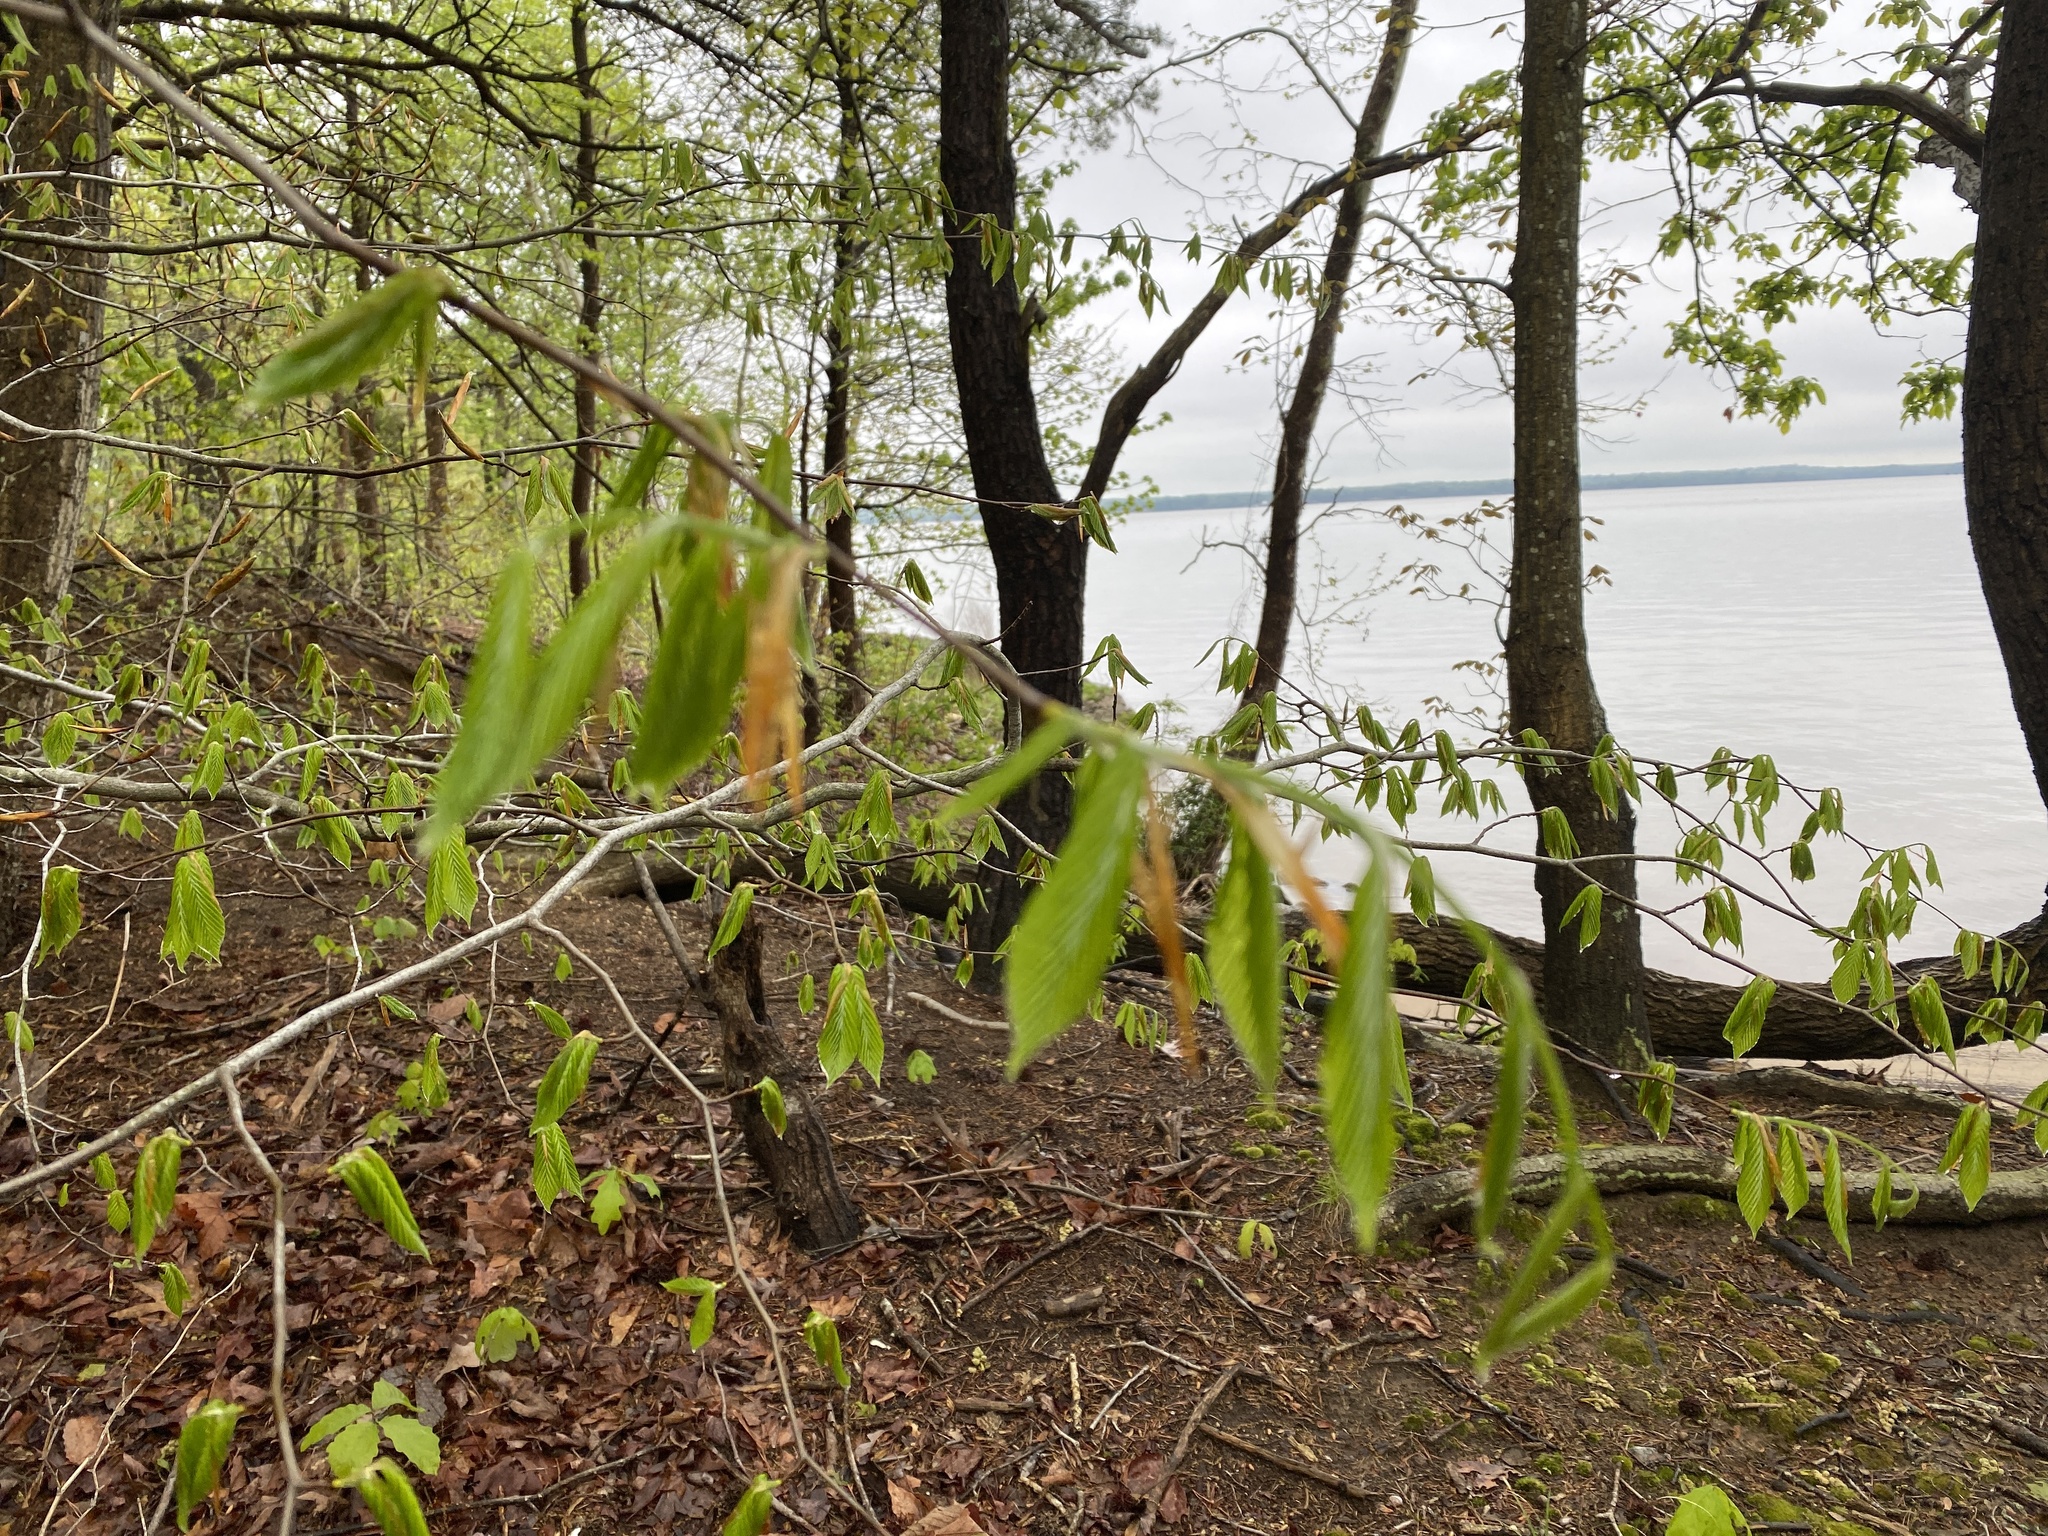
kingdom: Plantae
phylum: Tracheophyta
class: Magnoliopsida
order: Fagales
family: Fagaceae
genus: Fagus
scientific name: Fagus grandifolia
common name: American beech
